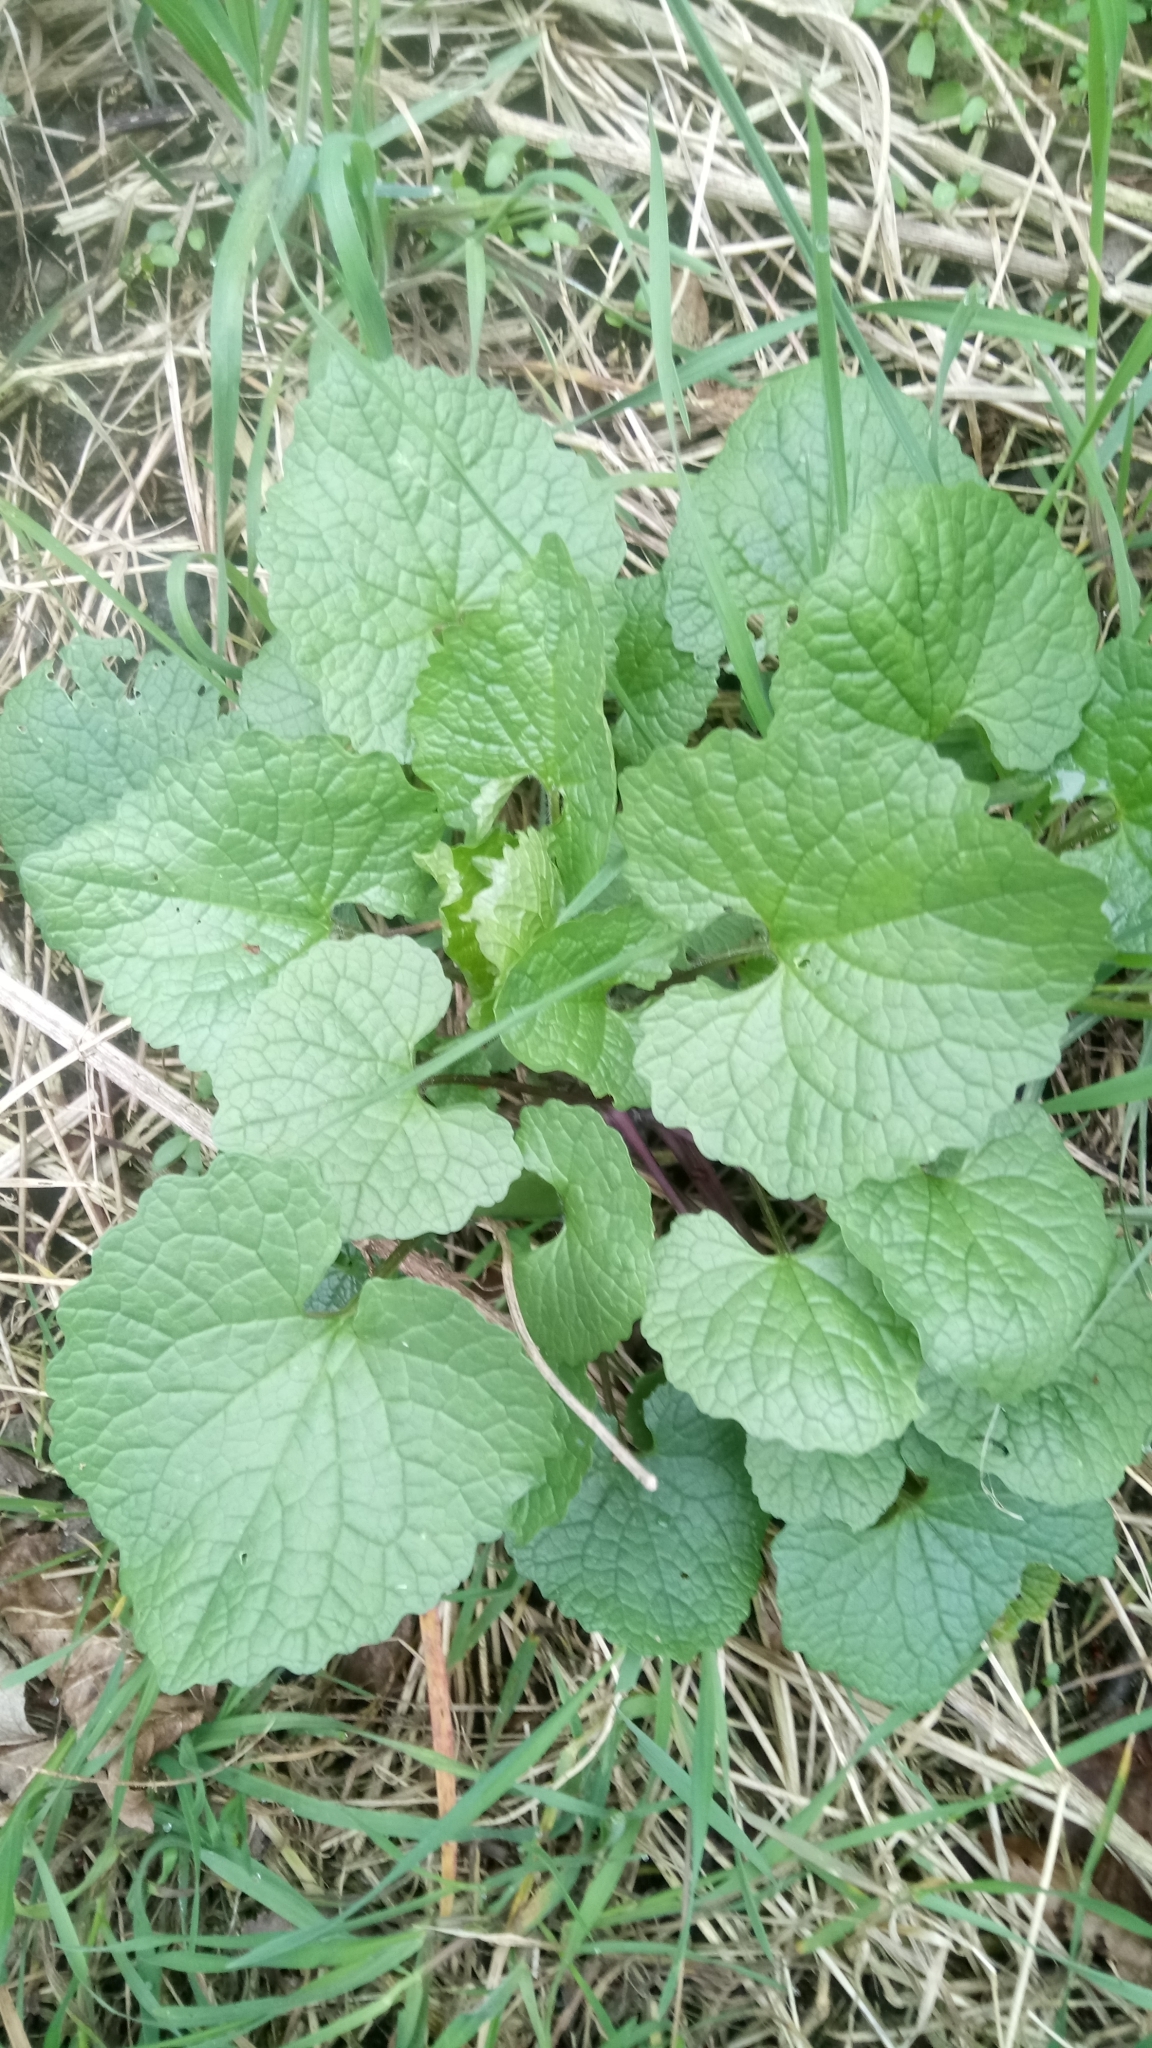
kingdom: Plantae
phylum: Tracheophyta
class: Magnoliopsida
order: Brassicales
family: Brassicaceae
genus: Alliaria
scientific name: Alliaria petiolata
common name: Garlic mustard
